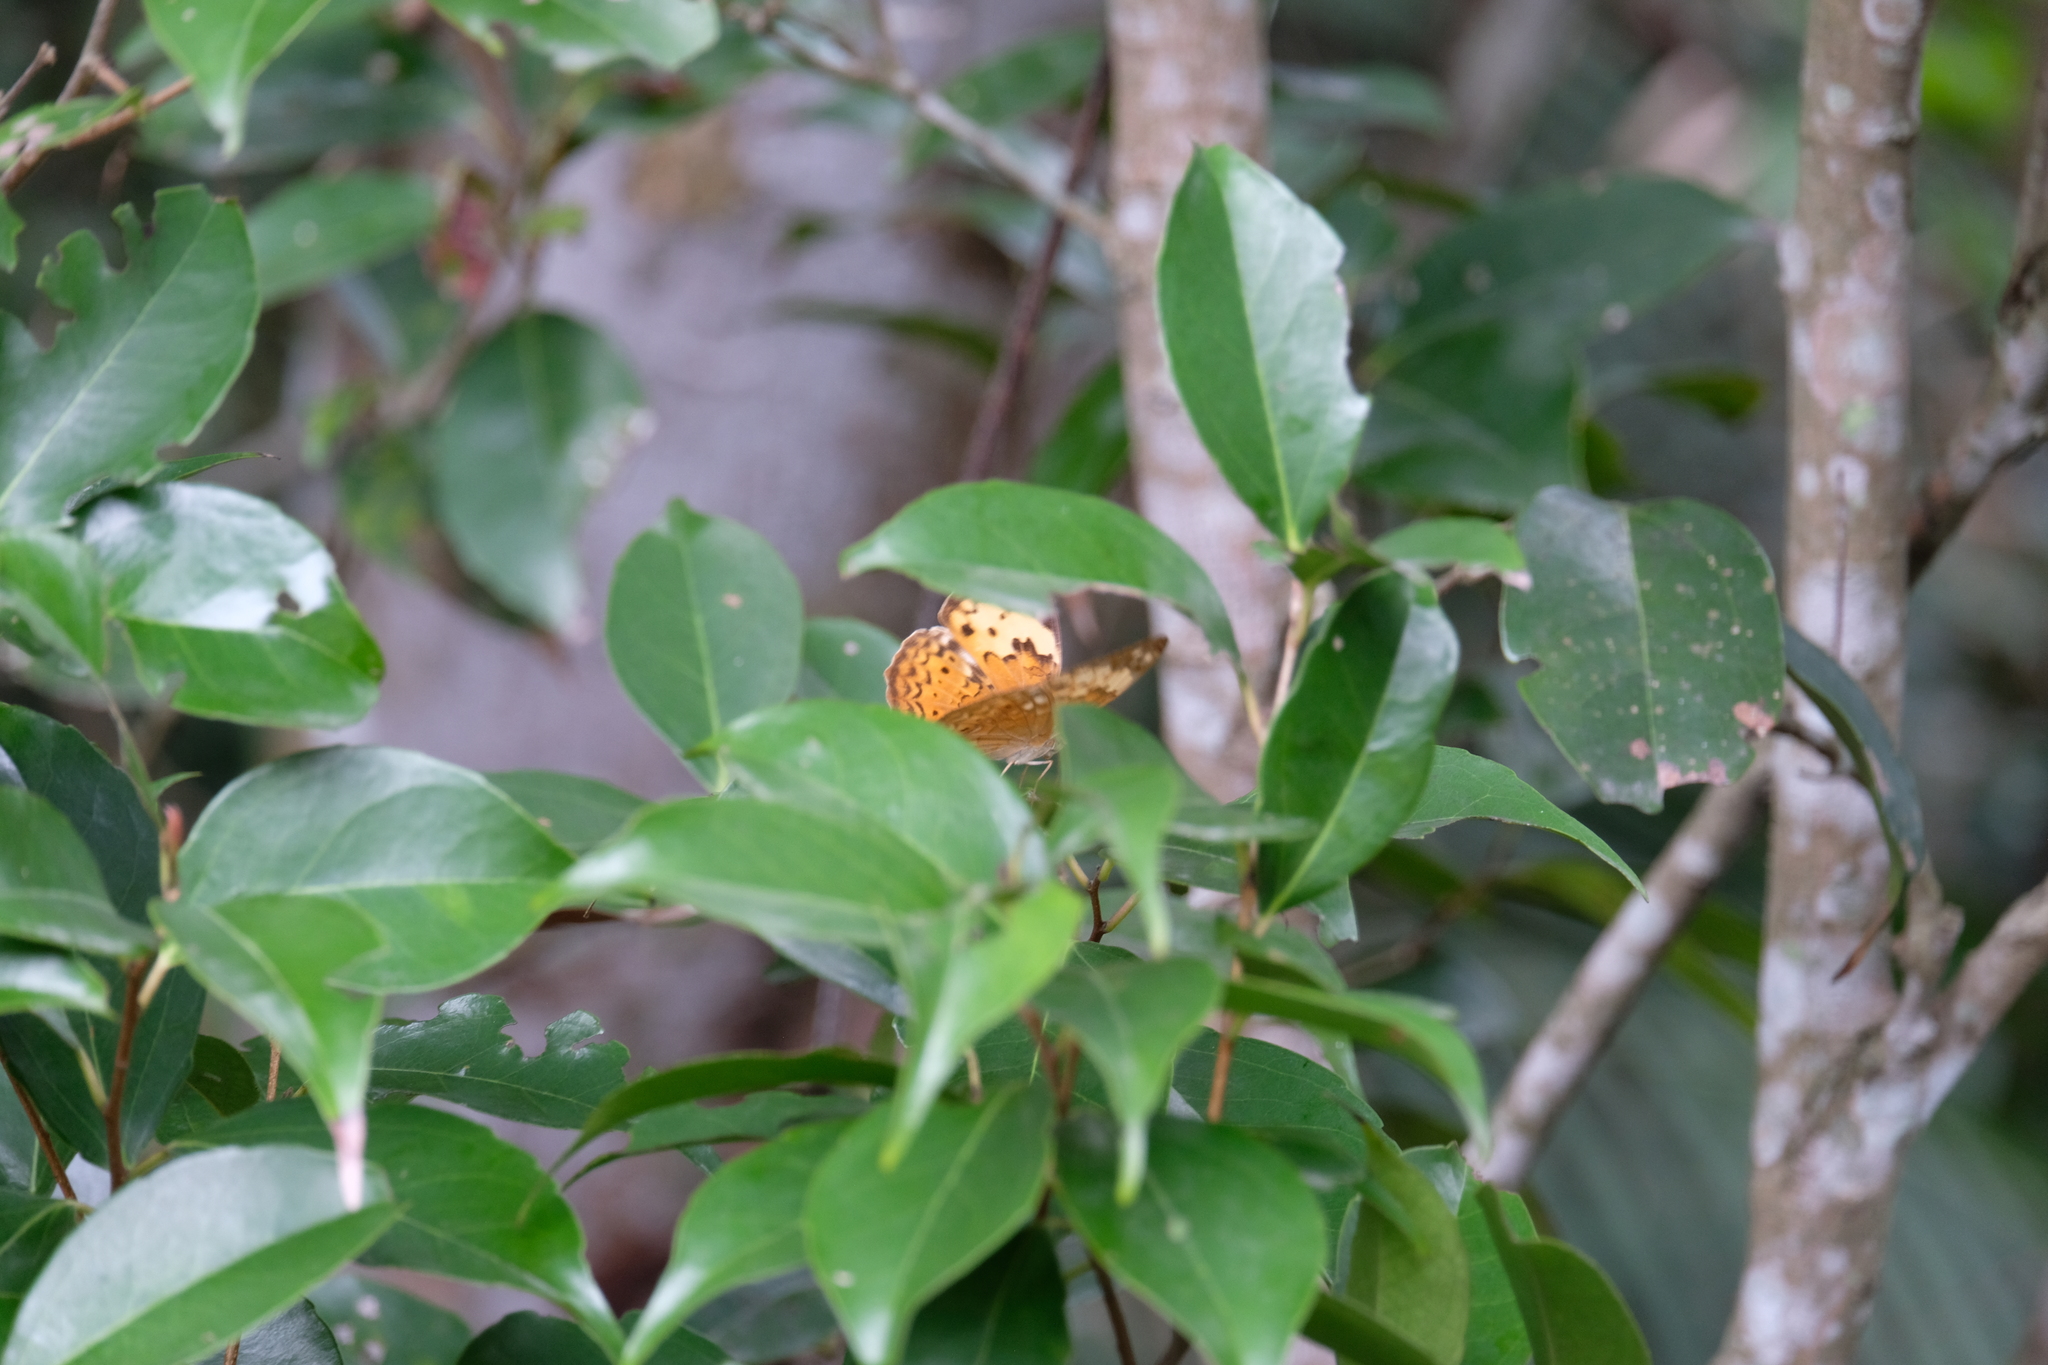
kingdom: Animalia
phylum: Arthropoda
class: Insecta
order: Lepidoptera
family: Nymphalidae
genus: Cupha
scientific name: Cupha erymanthis
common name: Rustic
